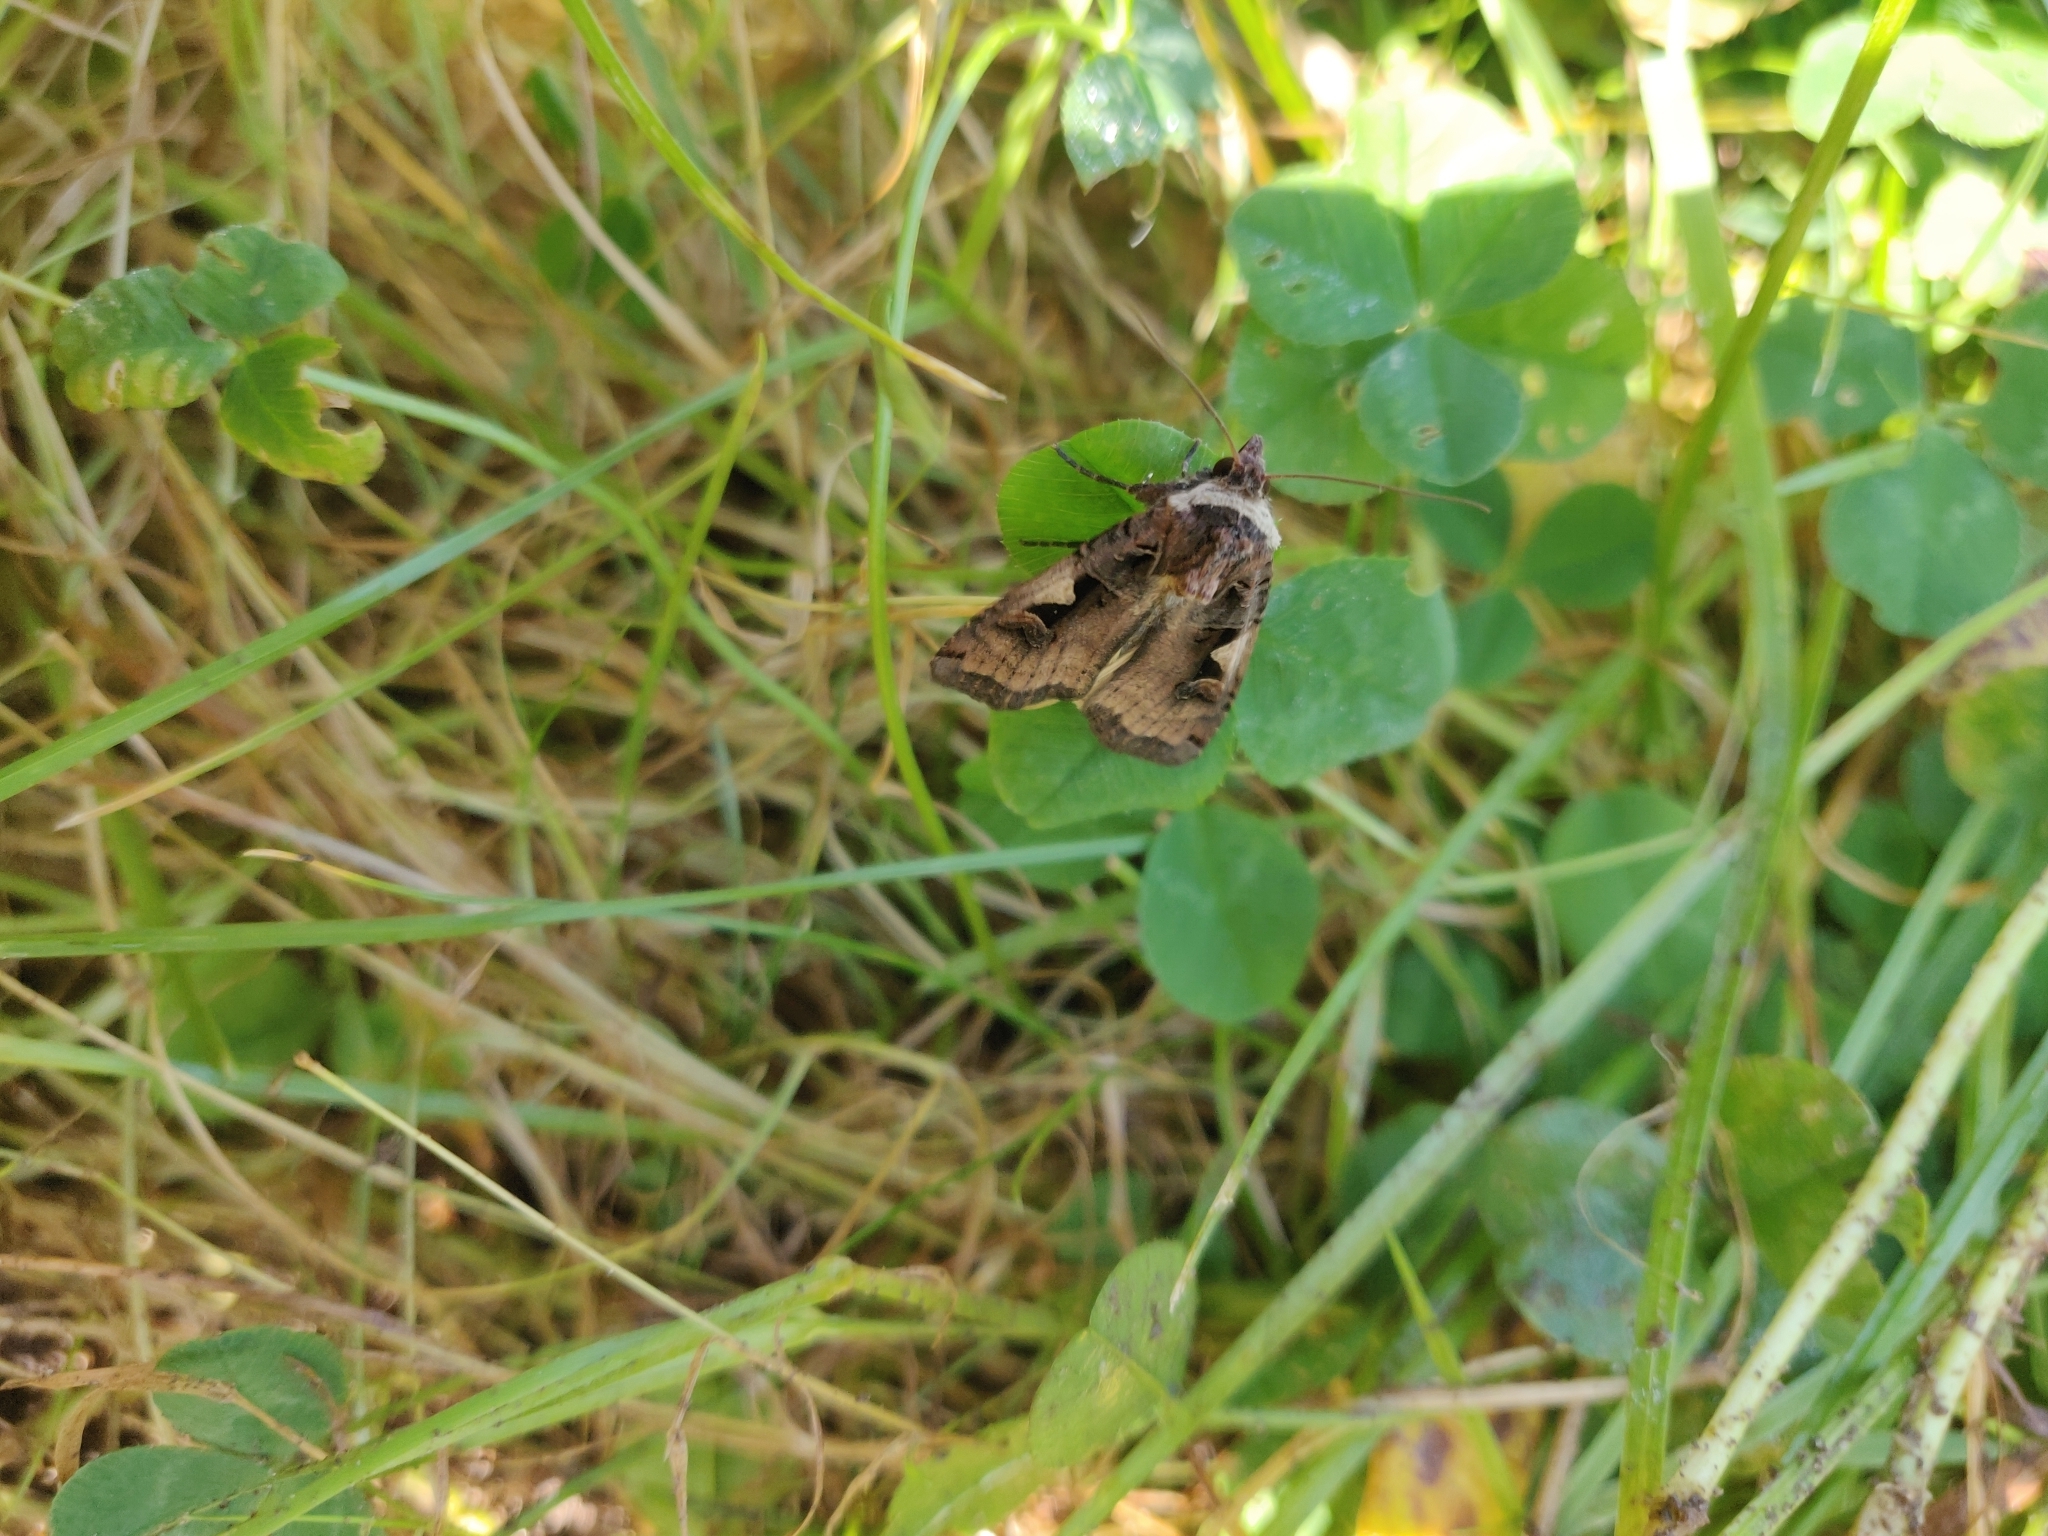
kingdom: Animalia
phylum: Arthropoda
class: Insecta
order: Lepidoptera
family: Noctuidae
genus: Xestia
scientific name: Xestia c-nigrum
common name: Setaceous hebrew character
